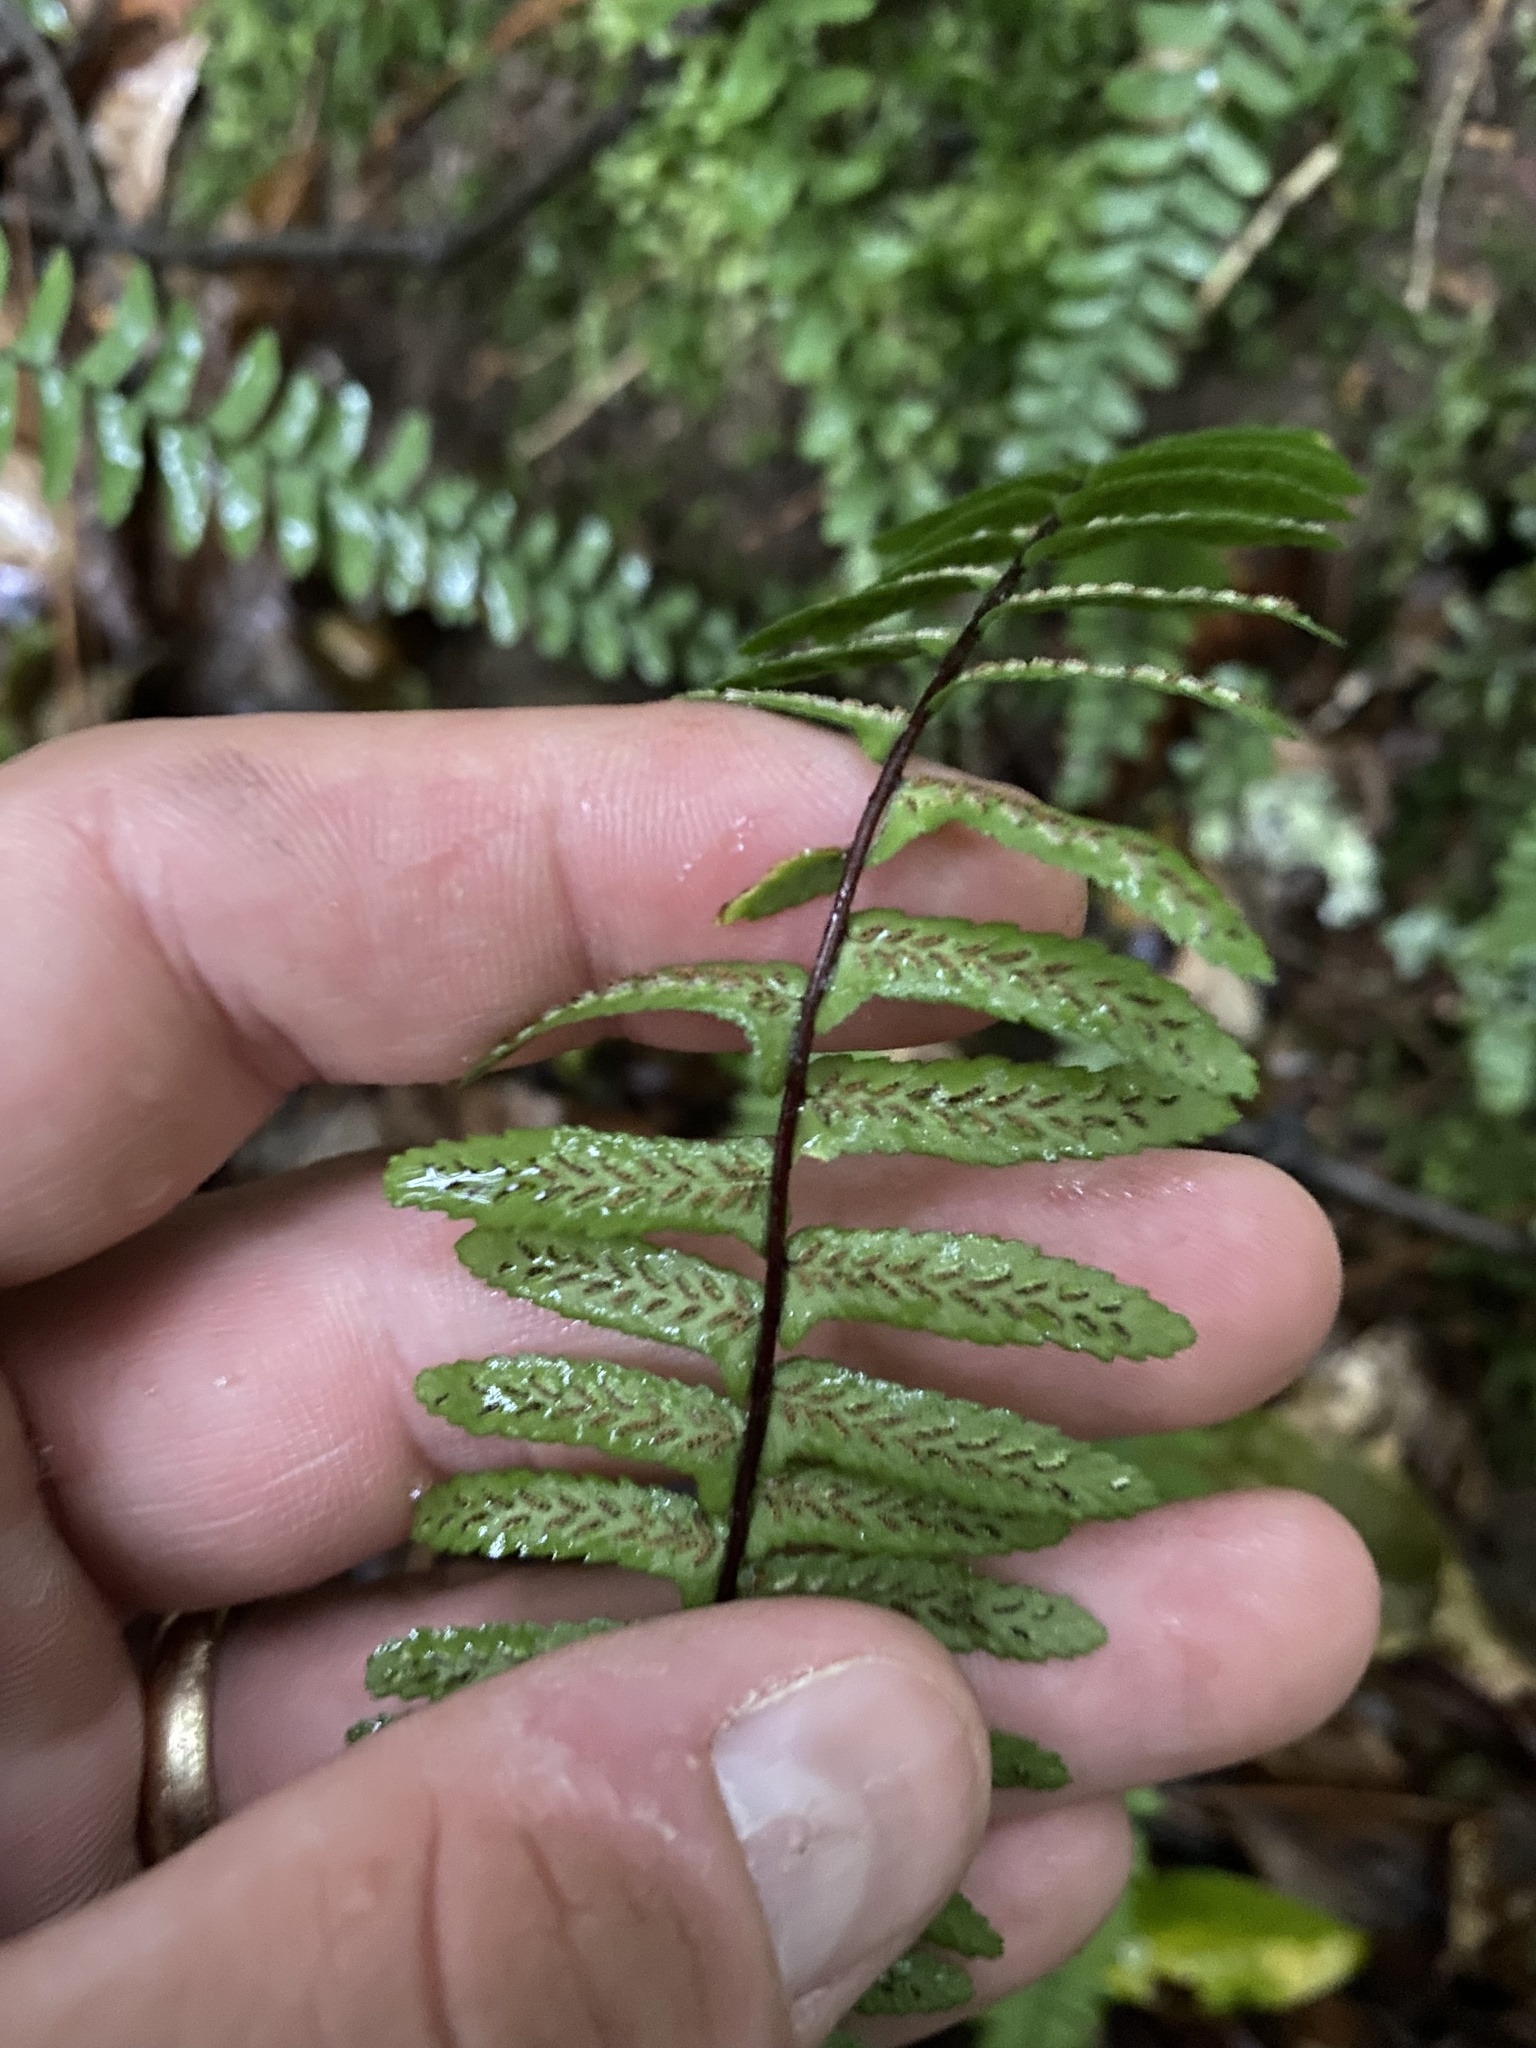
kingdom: Plantae
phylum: Tracheophyta
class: Polypodiopsida
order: Polypodiales
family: Aspleniaceae
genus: Asplenium
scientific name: Asplenium platyneuron
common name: Ebony spleenwort
